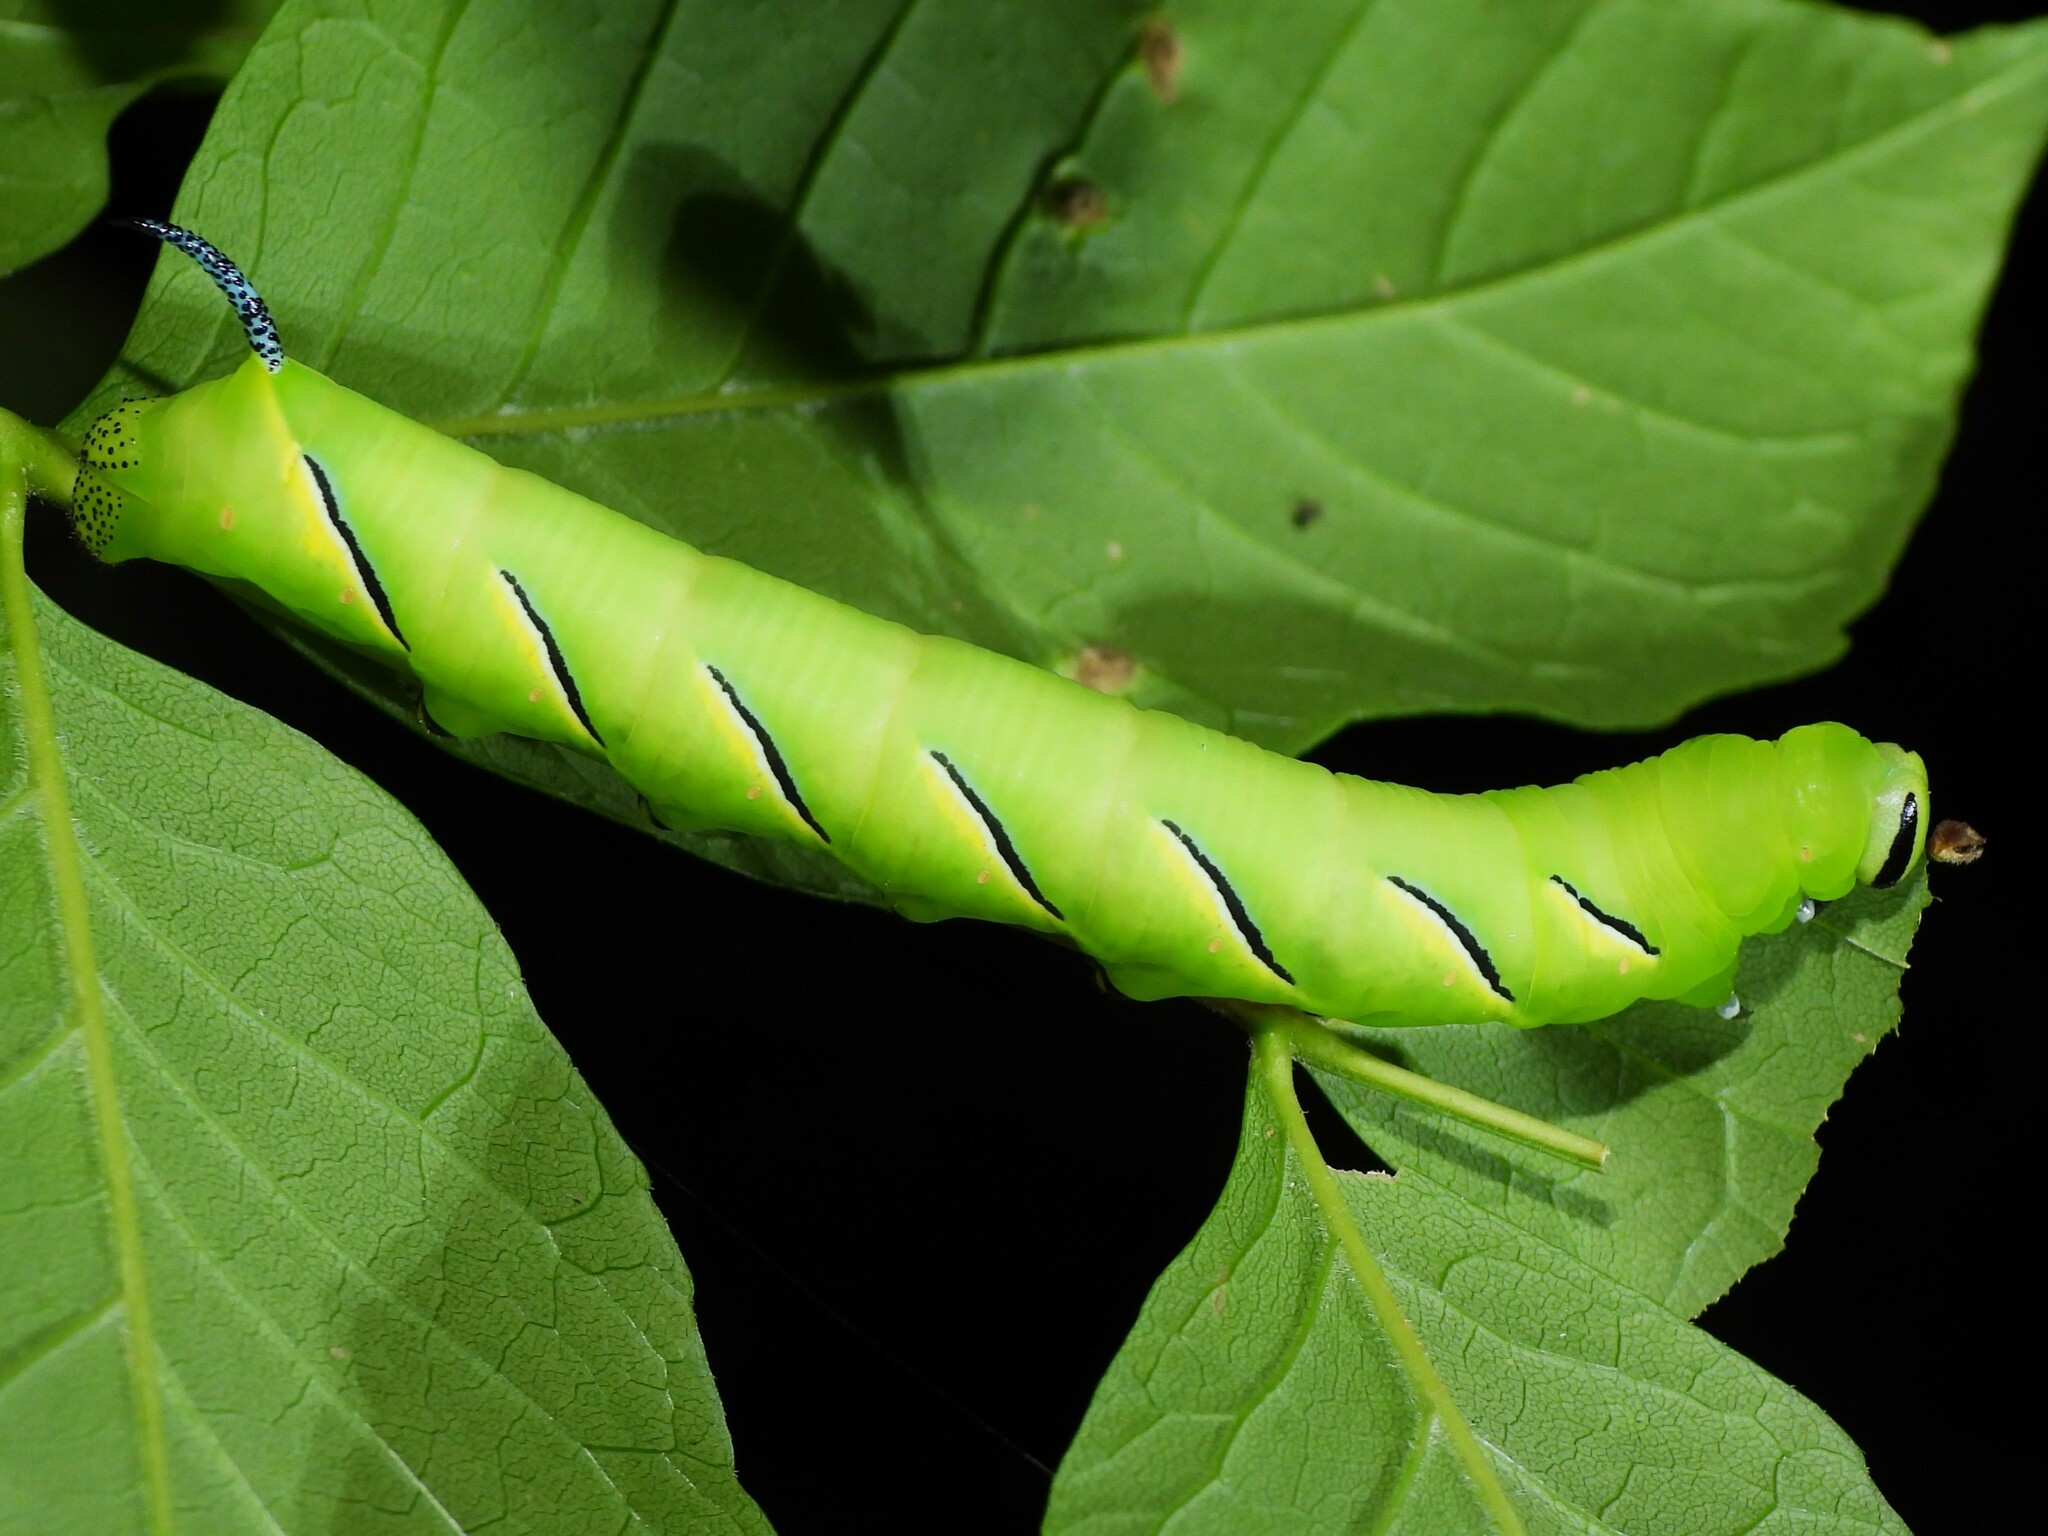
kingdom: Animalia
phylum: Arthropoda
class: Insecta
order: Lepidoptera
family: Sphingidae
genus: Sphinx
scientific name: Sphinx kalmiae
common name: Laurel sphinx
